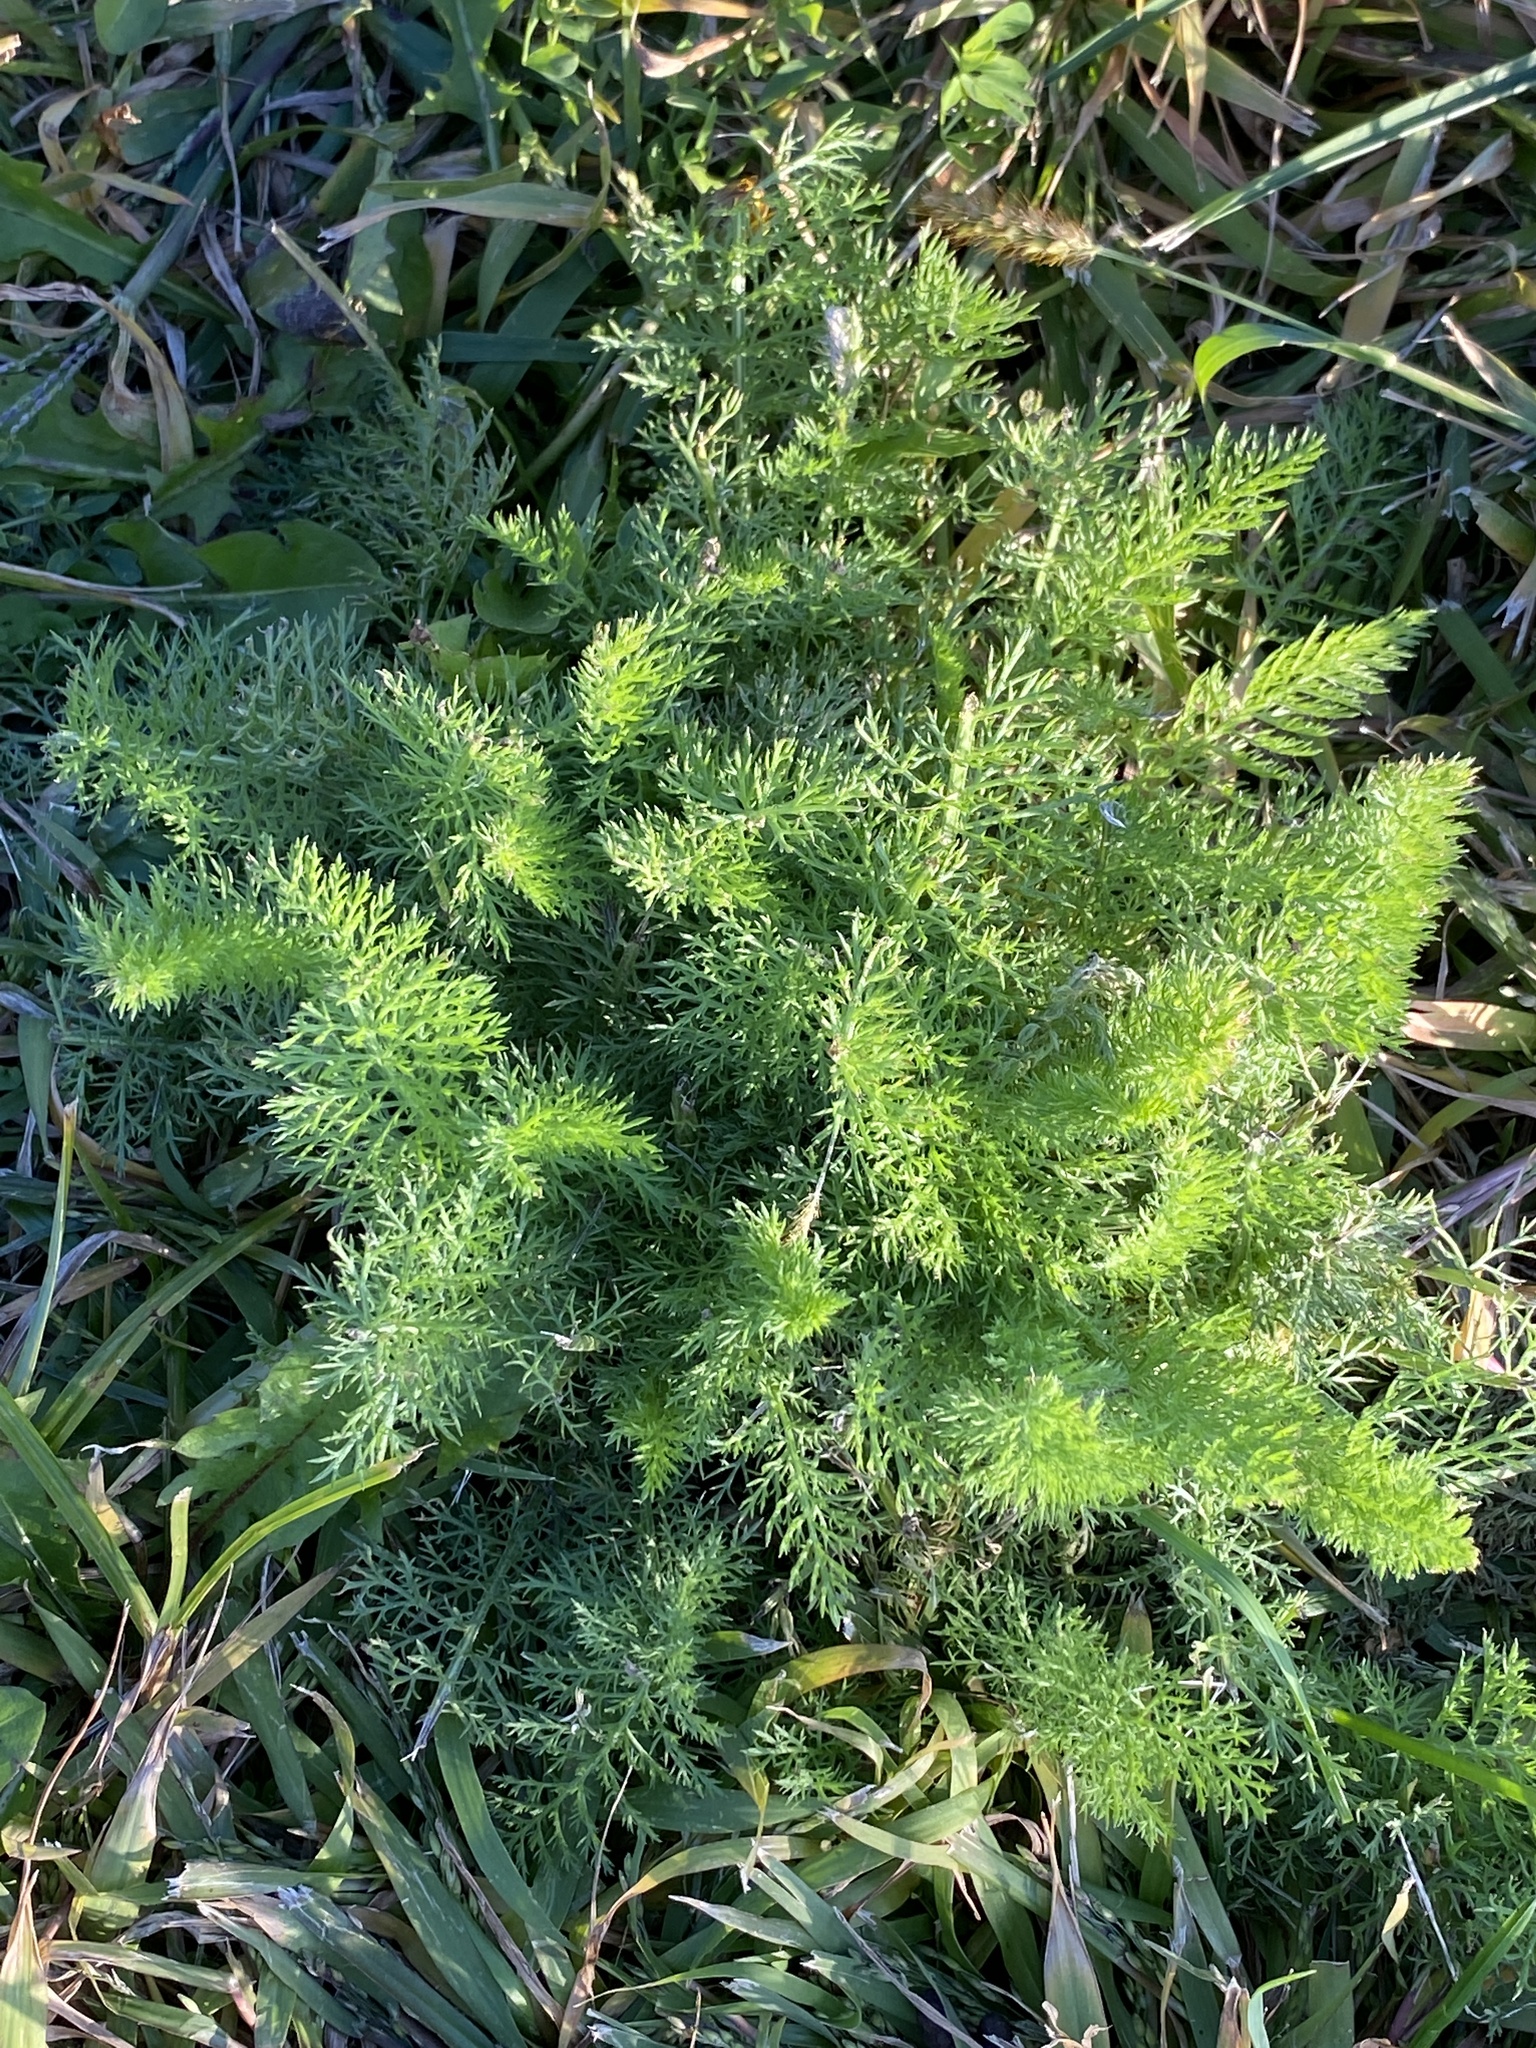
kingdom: Plantae
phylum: Tracheophyta
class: Magnoliopsida
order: Asterales
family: Asteraceae
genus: Achillea
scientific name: Achillea millefolium
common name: Yarrow
